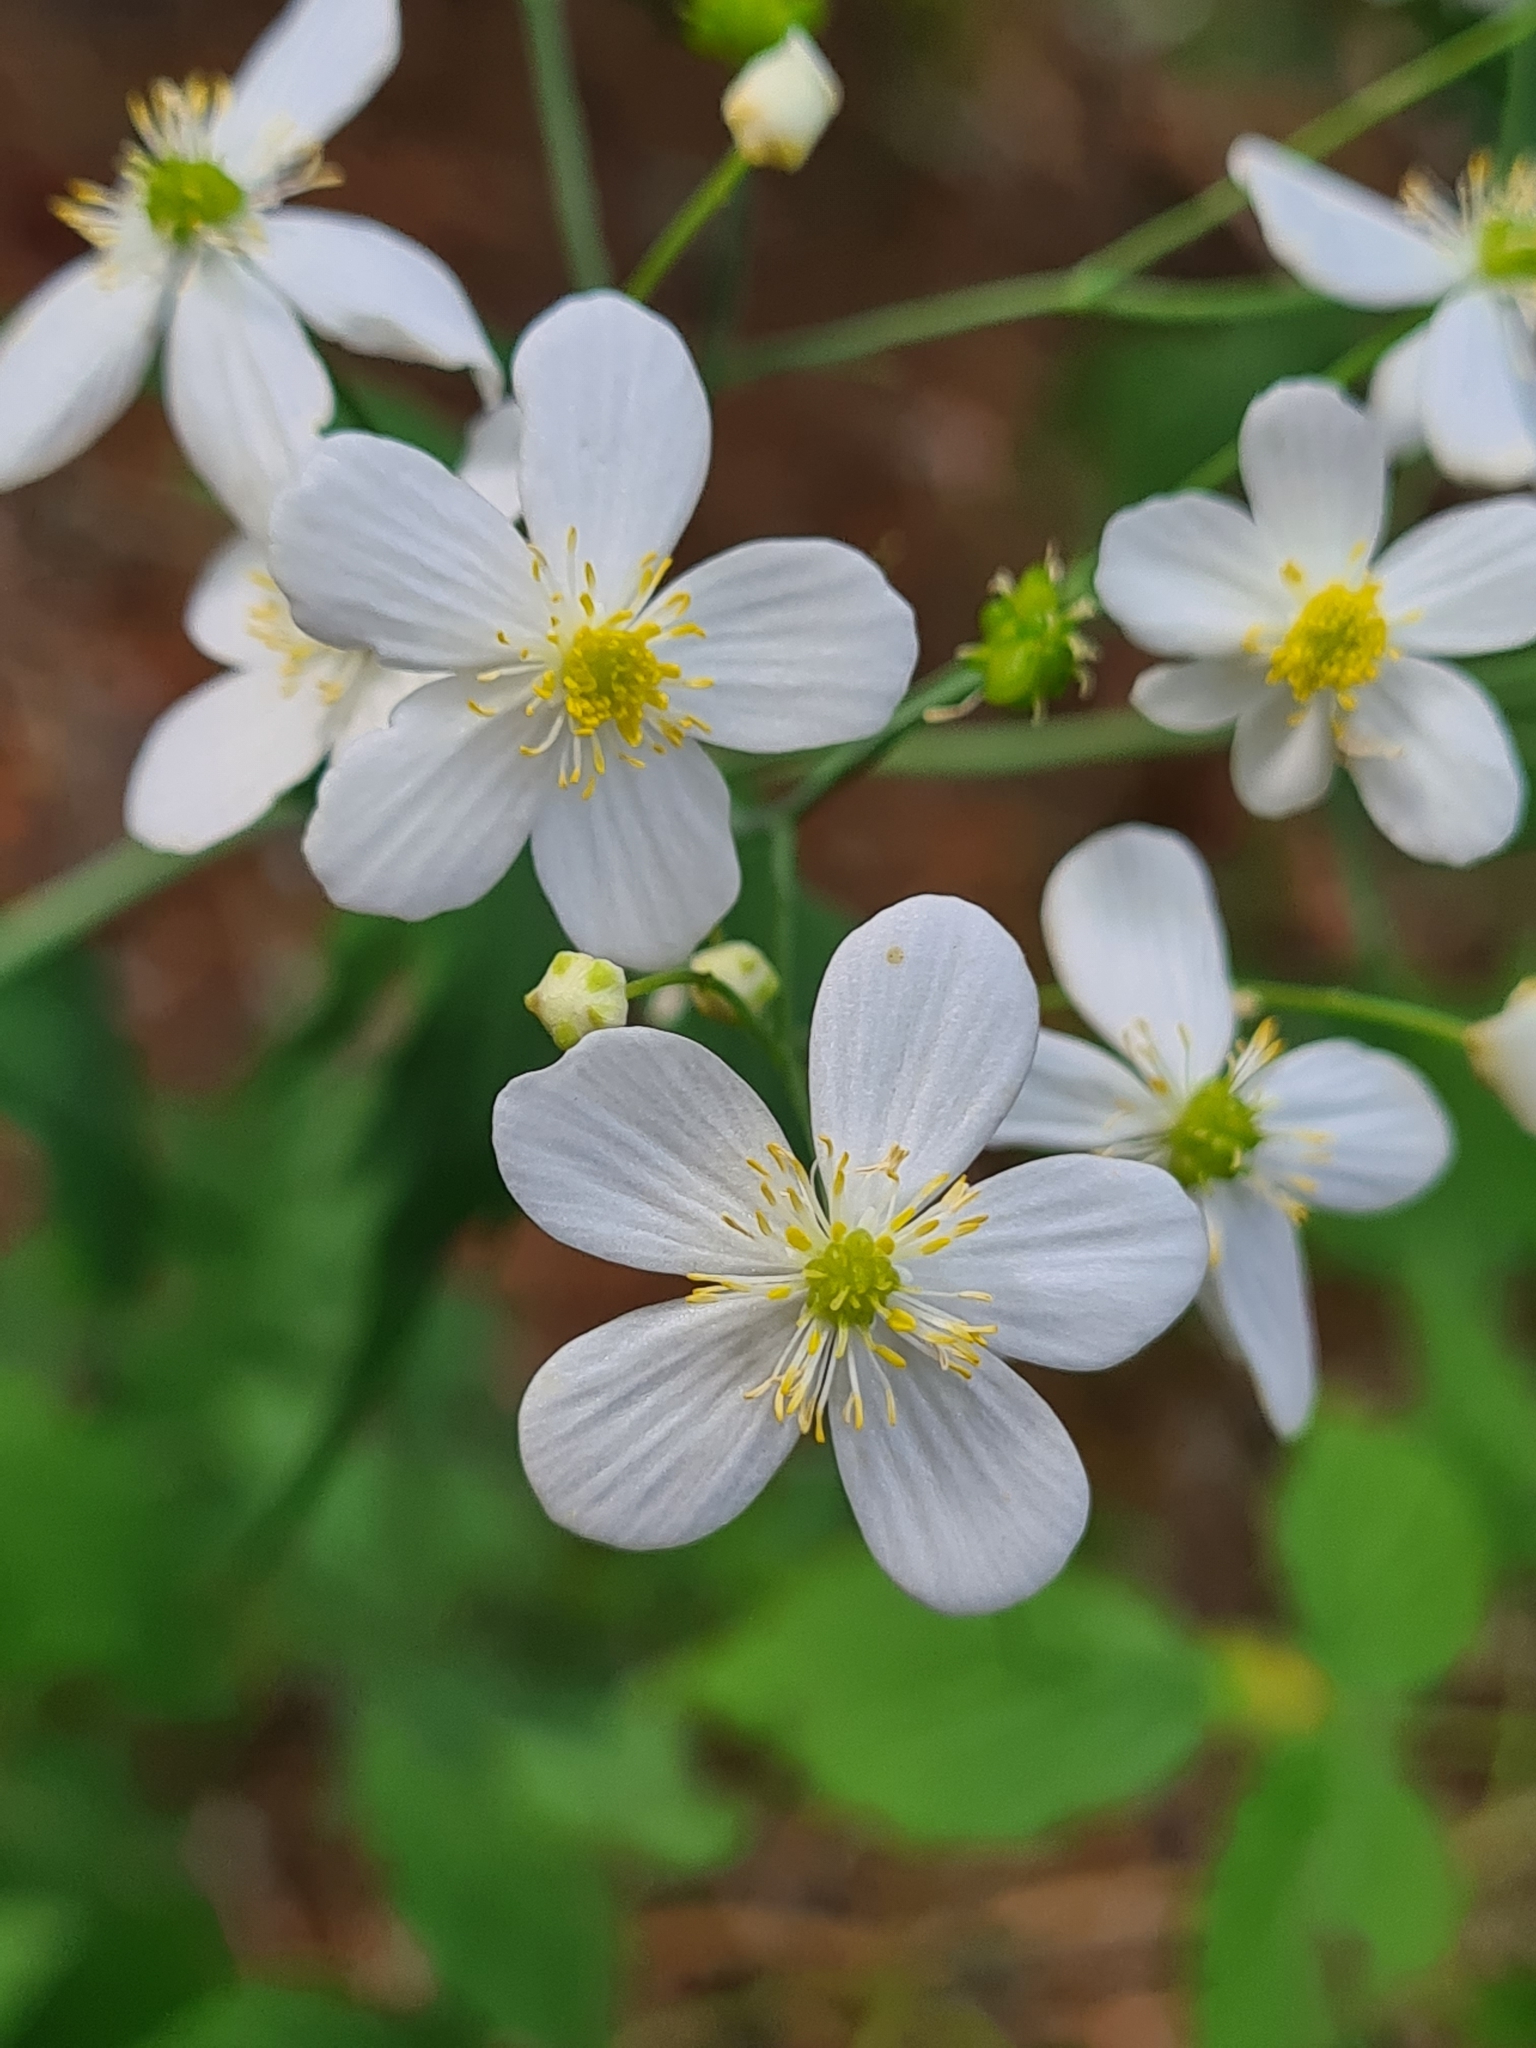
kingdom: Plantae
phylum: Tracheophyta
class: Magnoliopsida
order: Ranunculales
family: Ranunculaceae
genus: Ranunculus
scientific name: Ranunculus platanifolius
